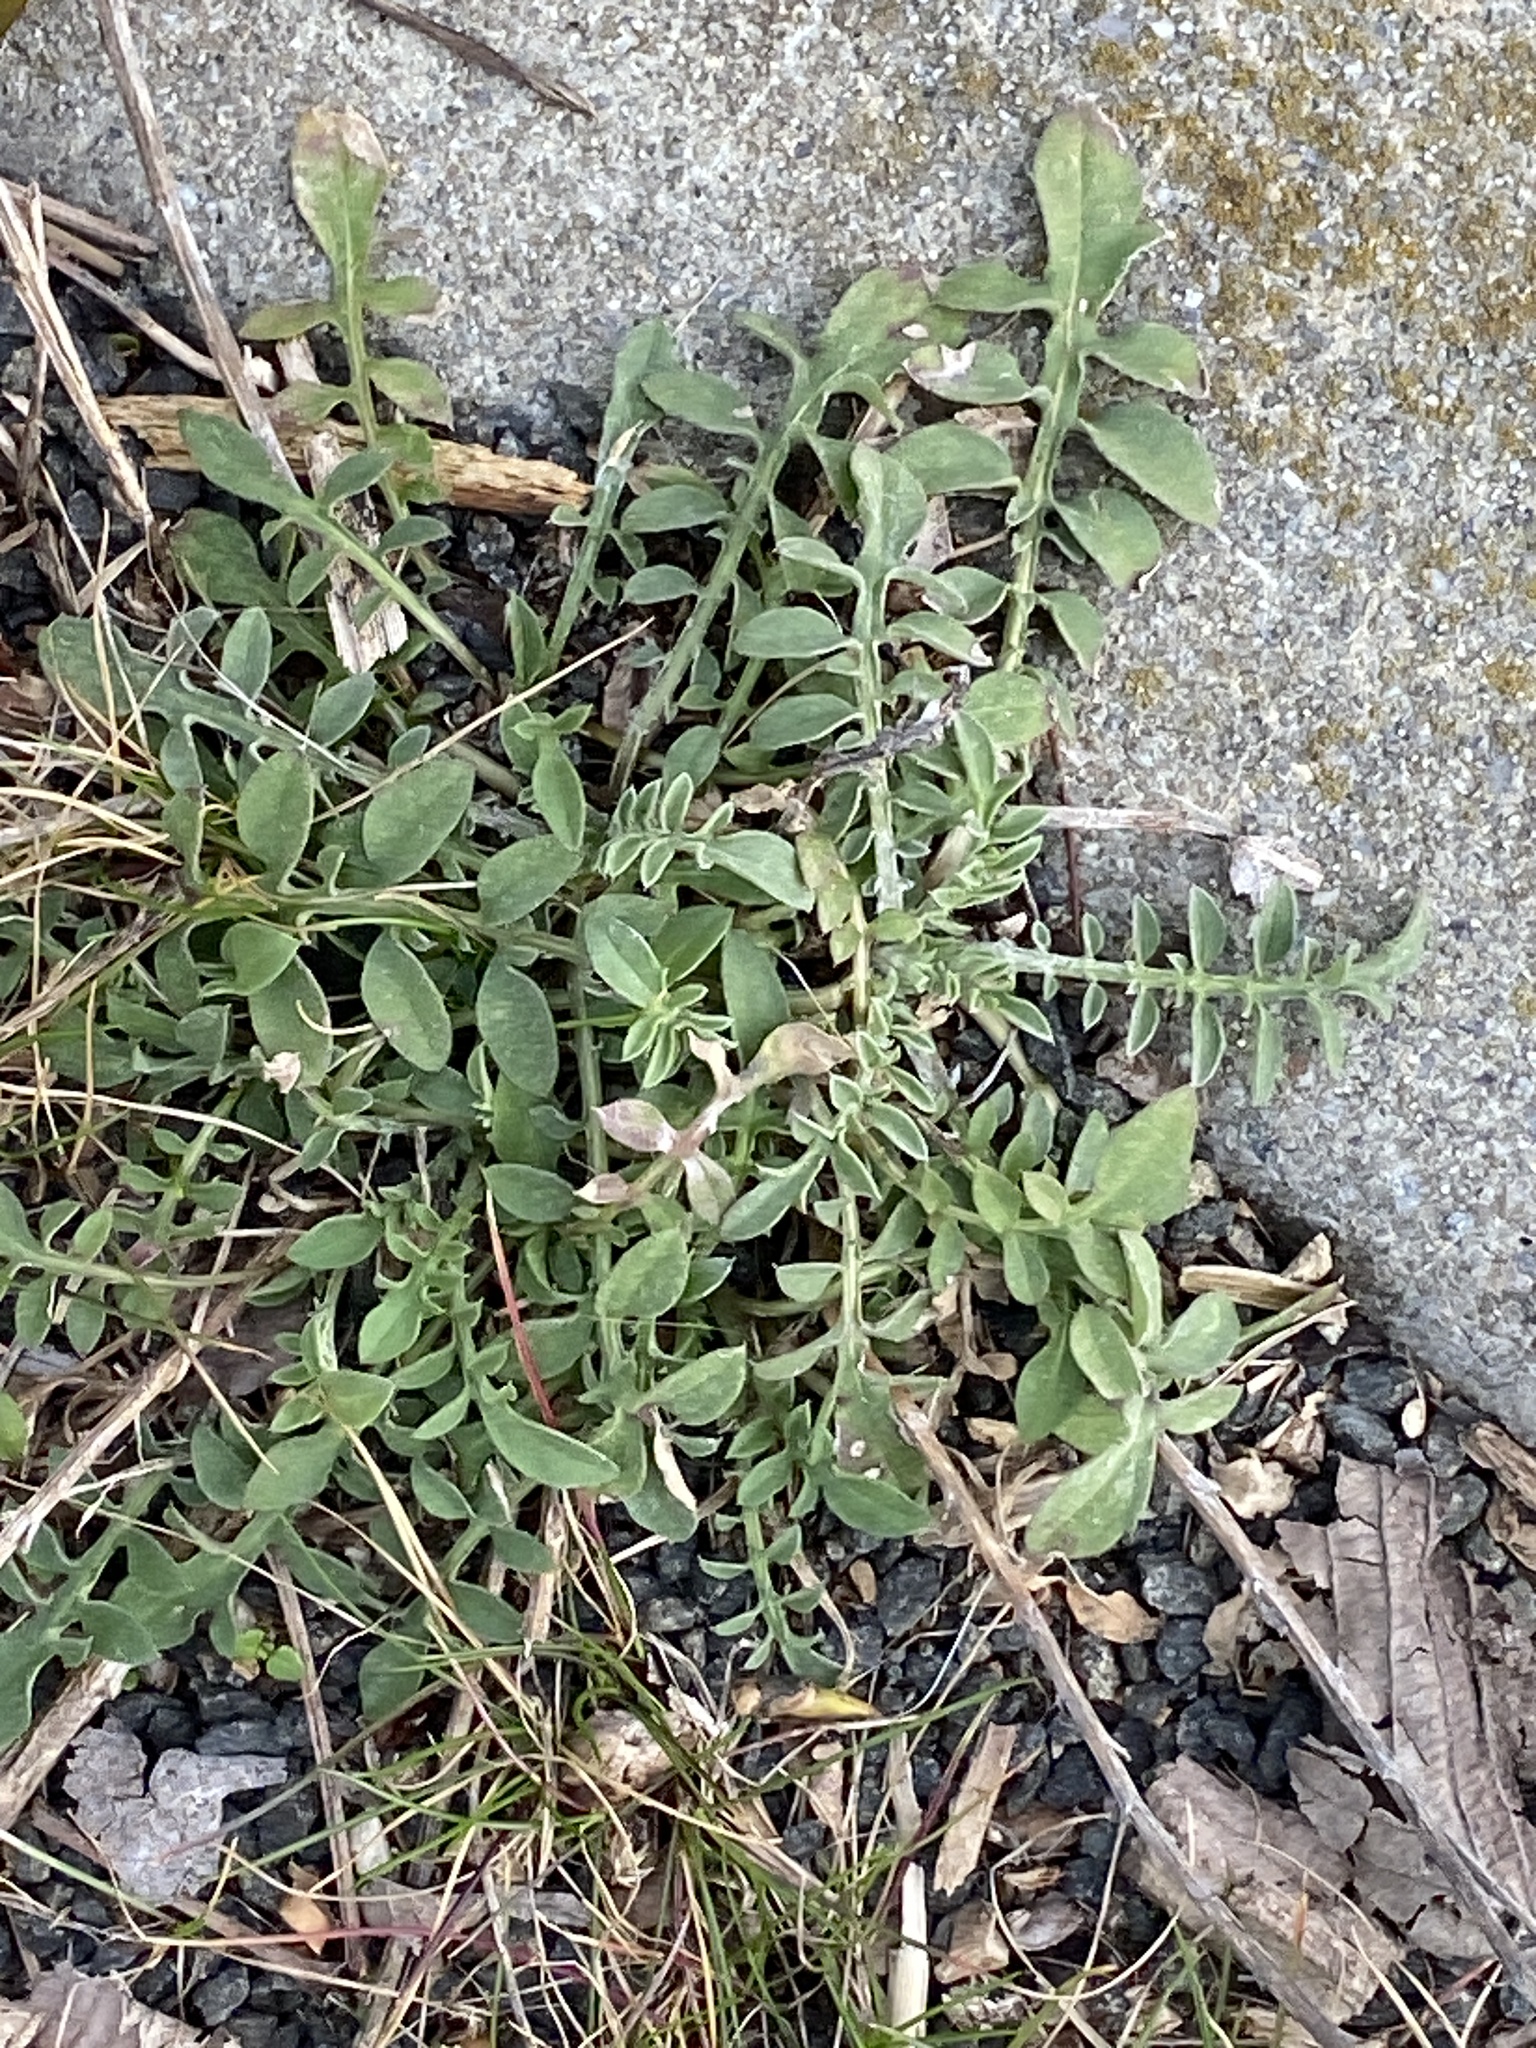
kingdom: Plantae
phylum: Tracheophyta
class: Magnoliopsida
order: Asterales
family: Asteraceae
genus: Centaurea
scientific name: Centaurea stoebe
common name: Spotted knapweed
